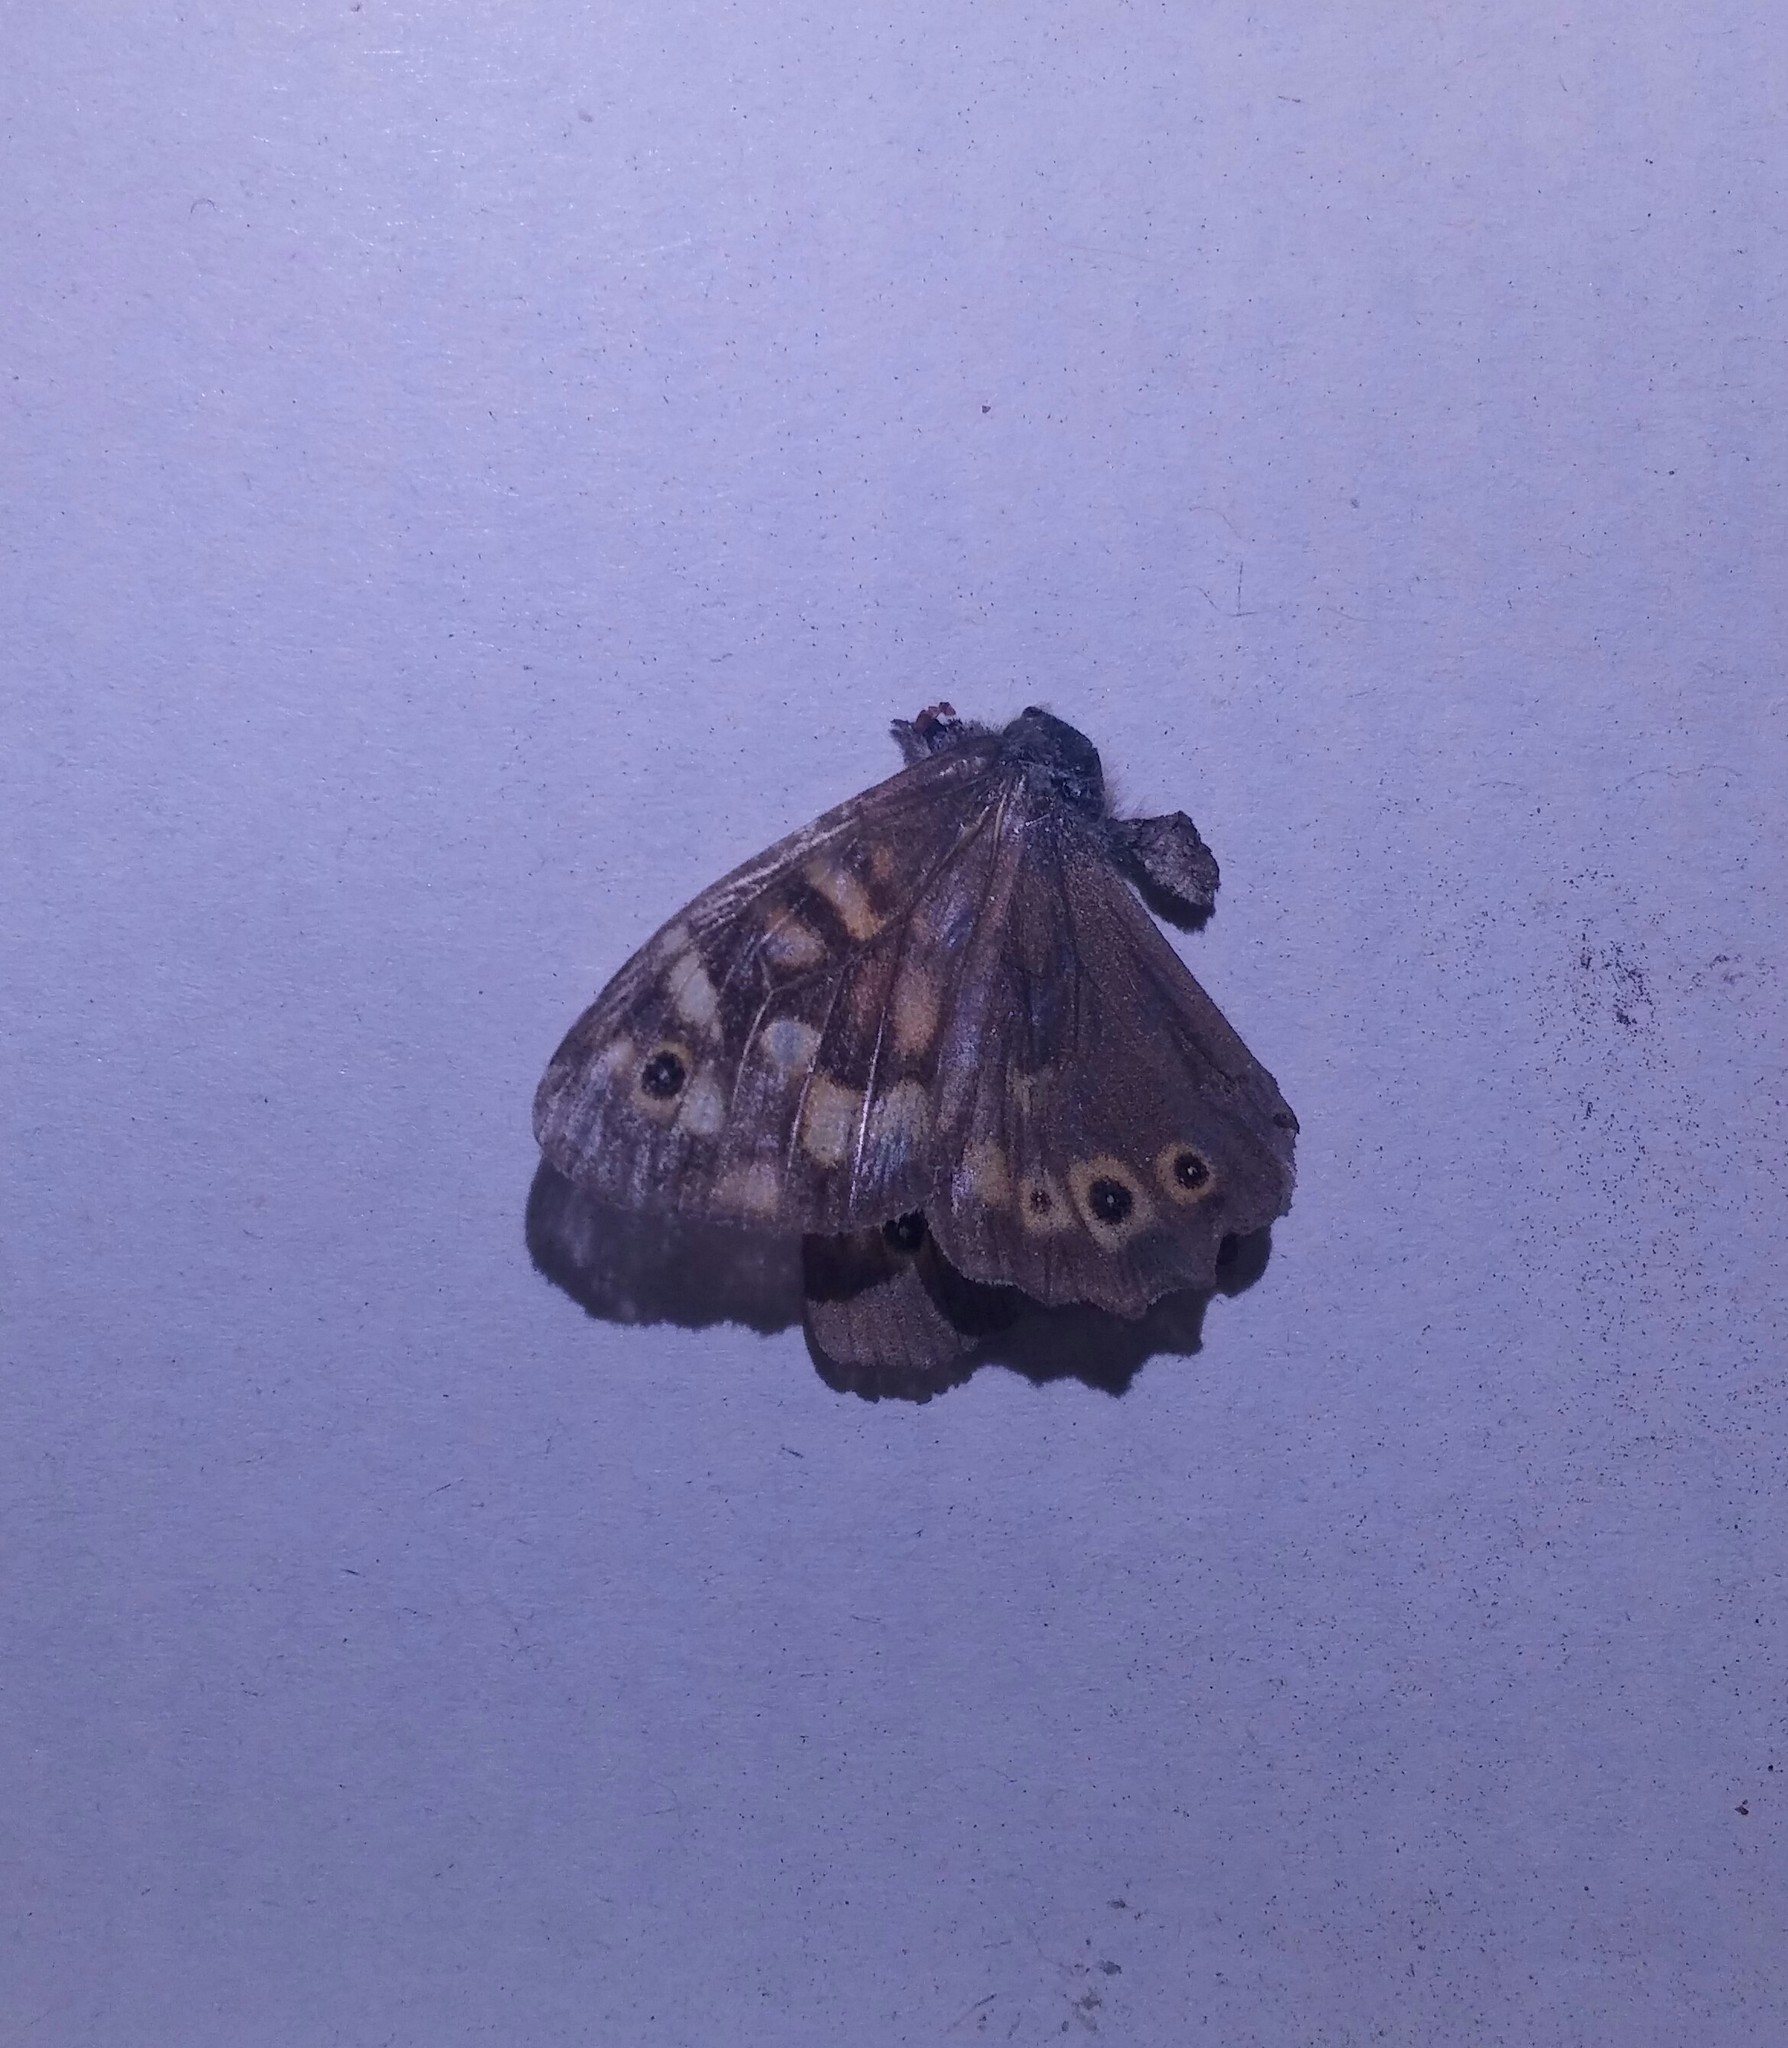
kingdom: Animalia
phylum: Arthropoda
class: Insecta
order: Lepidoptera
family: Nymphalidae
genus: Pararge
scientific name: Pararge aegeria
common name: Speckled wood
